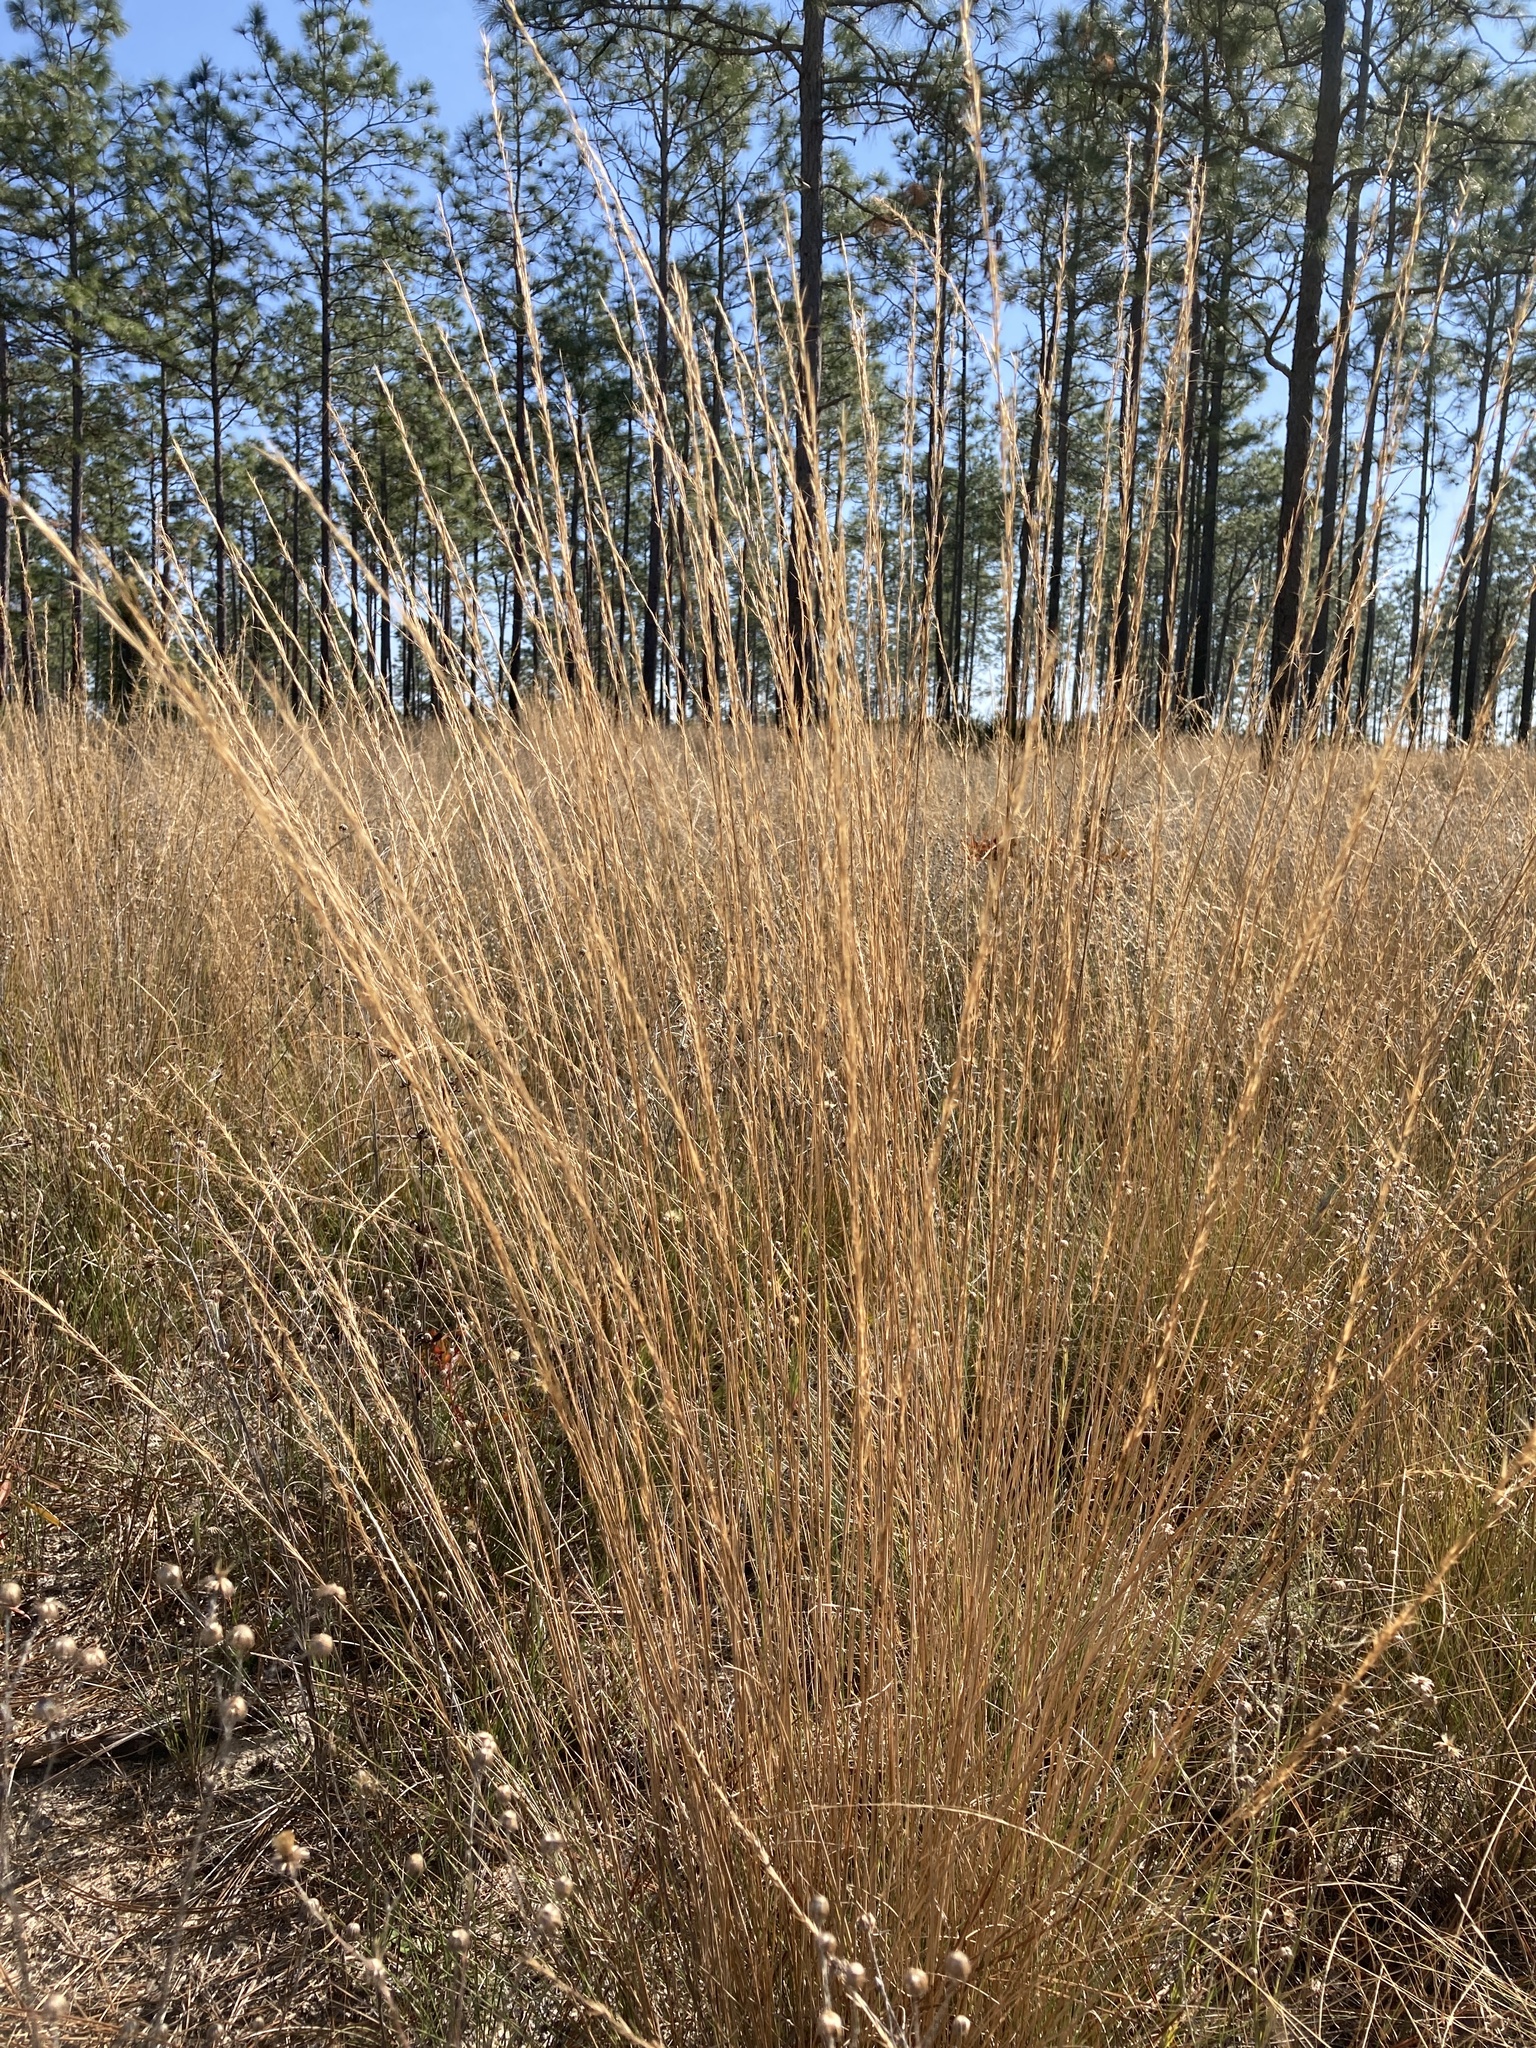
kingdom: Plantae
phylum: Tracheophyta
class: Liliopsida
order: Poales
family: Poaceae
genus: Aristida
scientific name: Aristida beyrichiana
